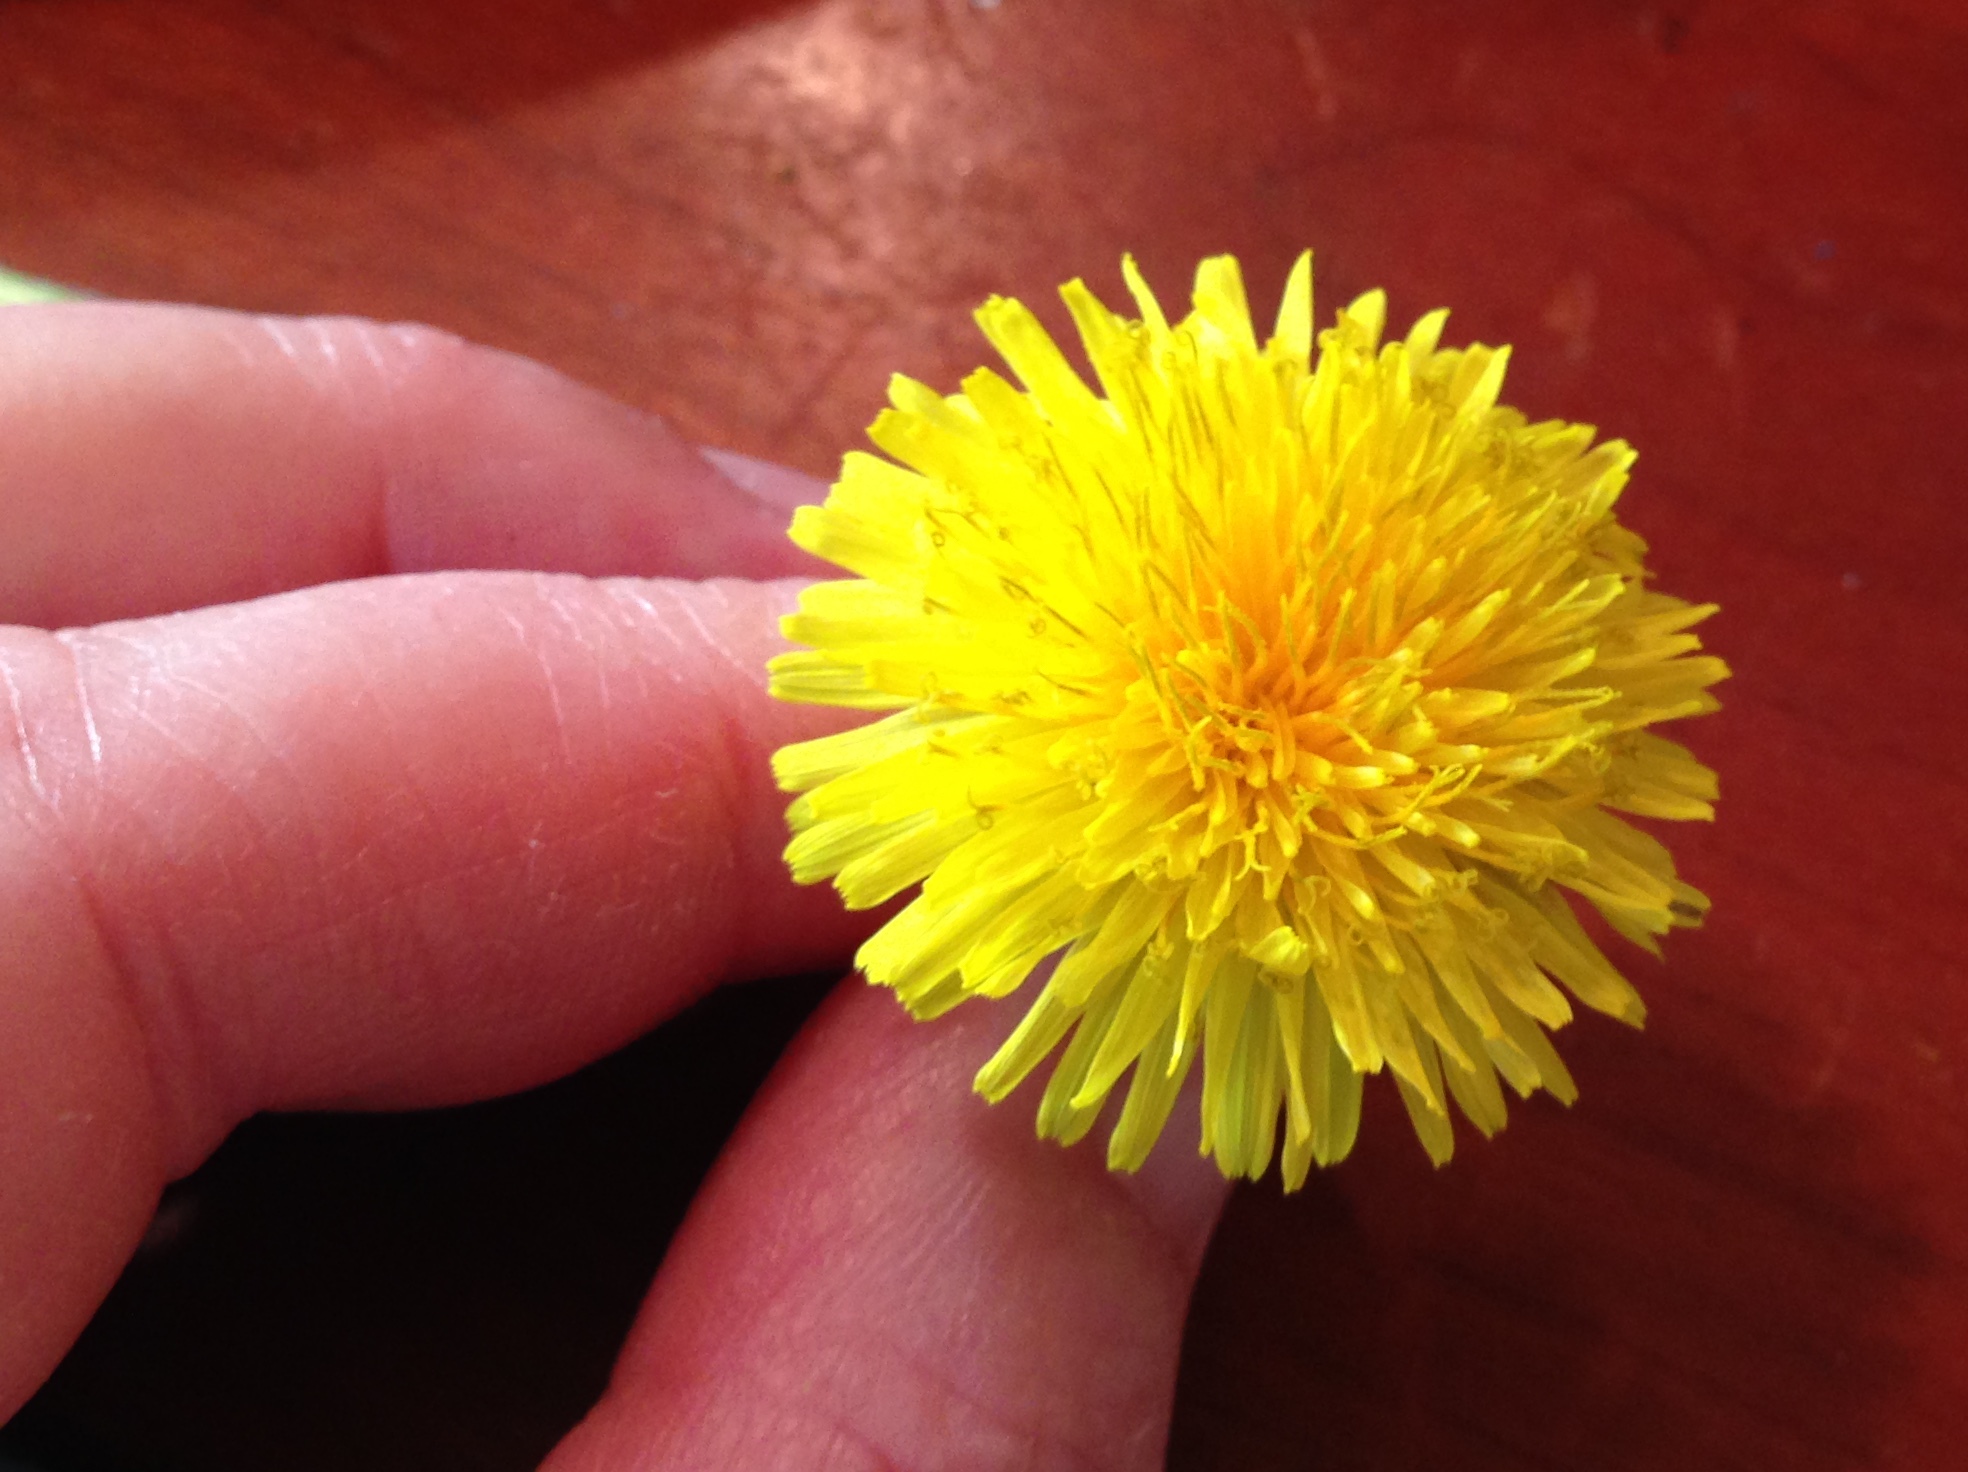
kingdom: Plantae
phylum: Tracheophyta
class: Magnoliopsida
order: Asterales
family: Asteraceae
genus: Taraxacum
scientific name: Taraxacum officinale
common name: Common dandelion
